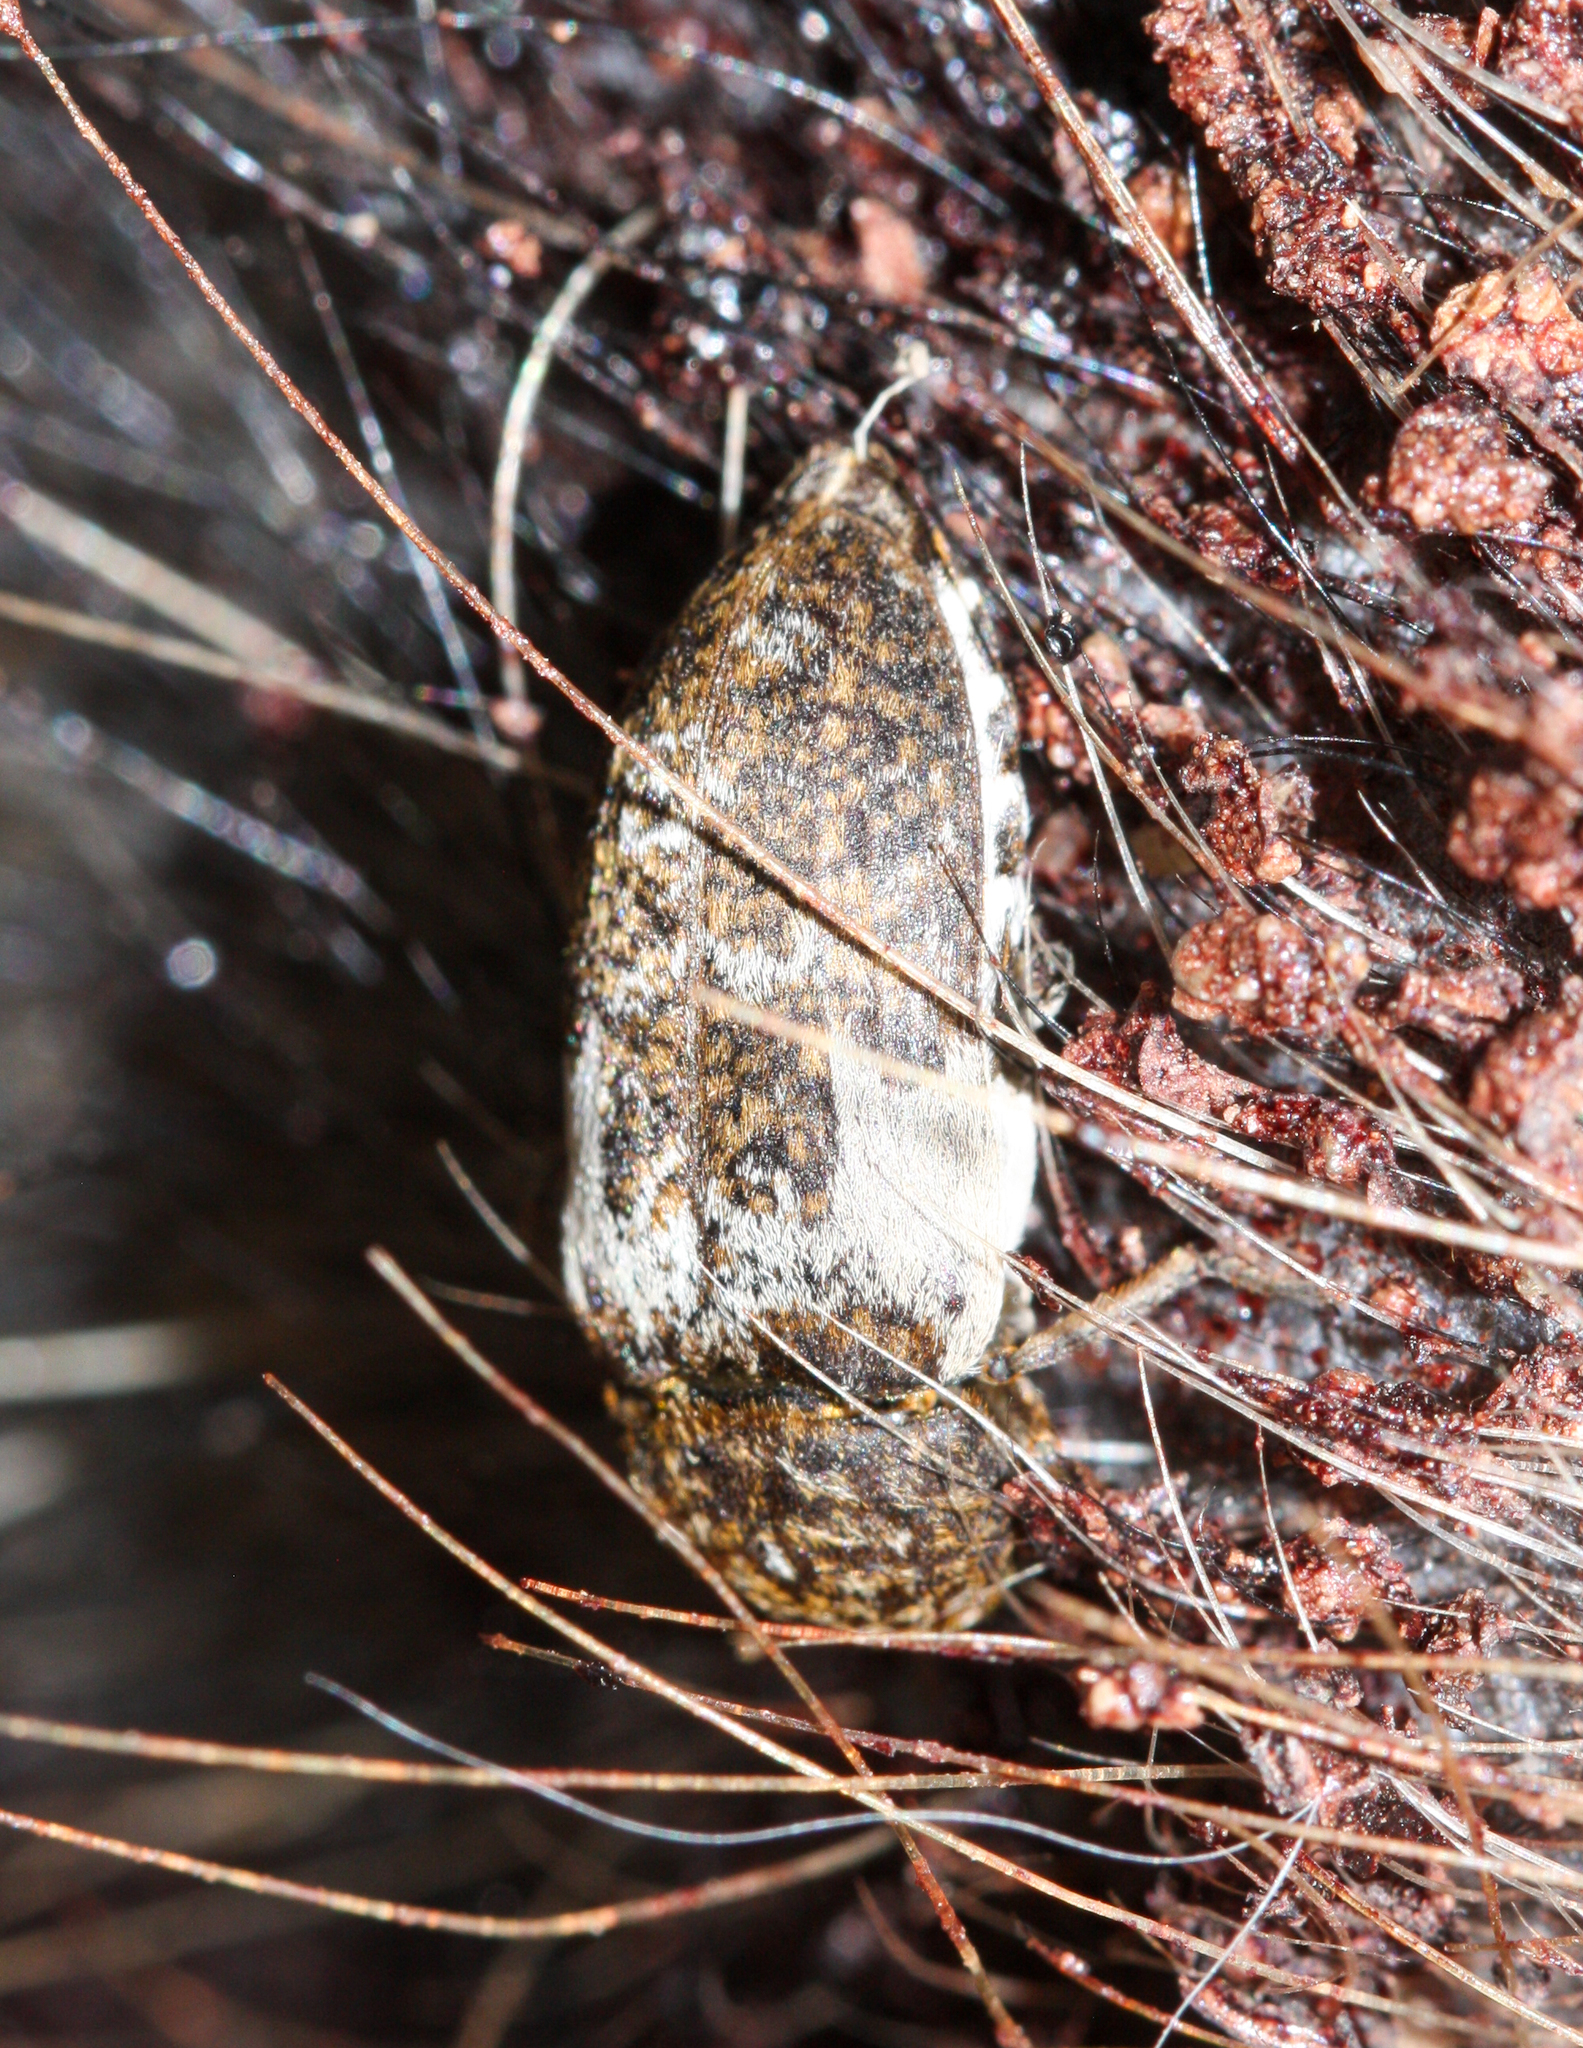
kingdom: Animalia
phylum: Arthropoda
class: Insecta
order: Coleoptera
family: Dermestidae
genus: Dermestes
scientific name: Dermestes marmoratus
